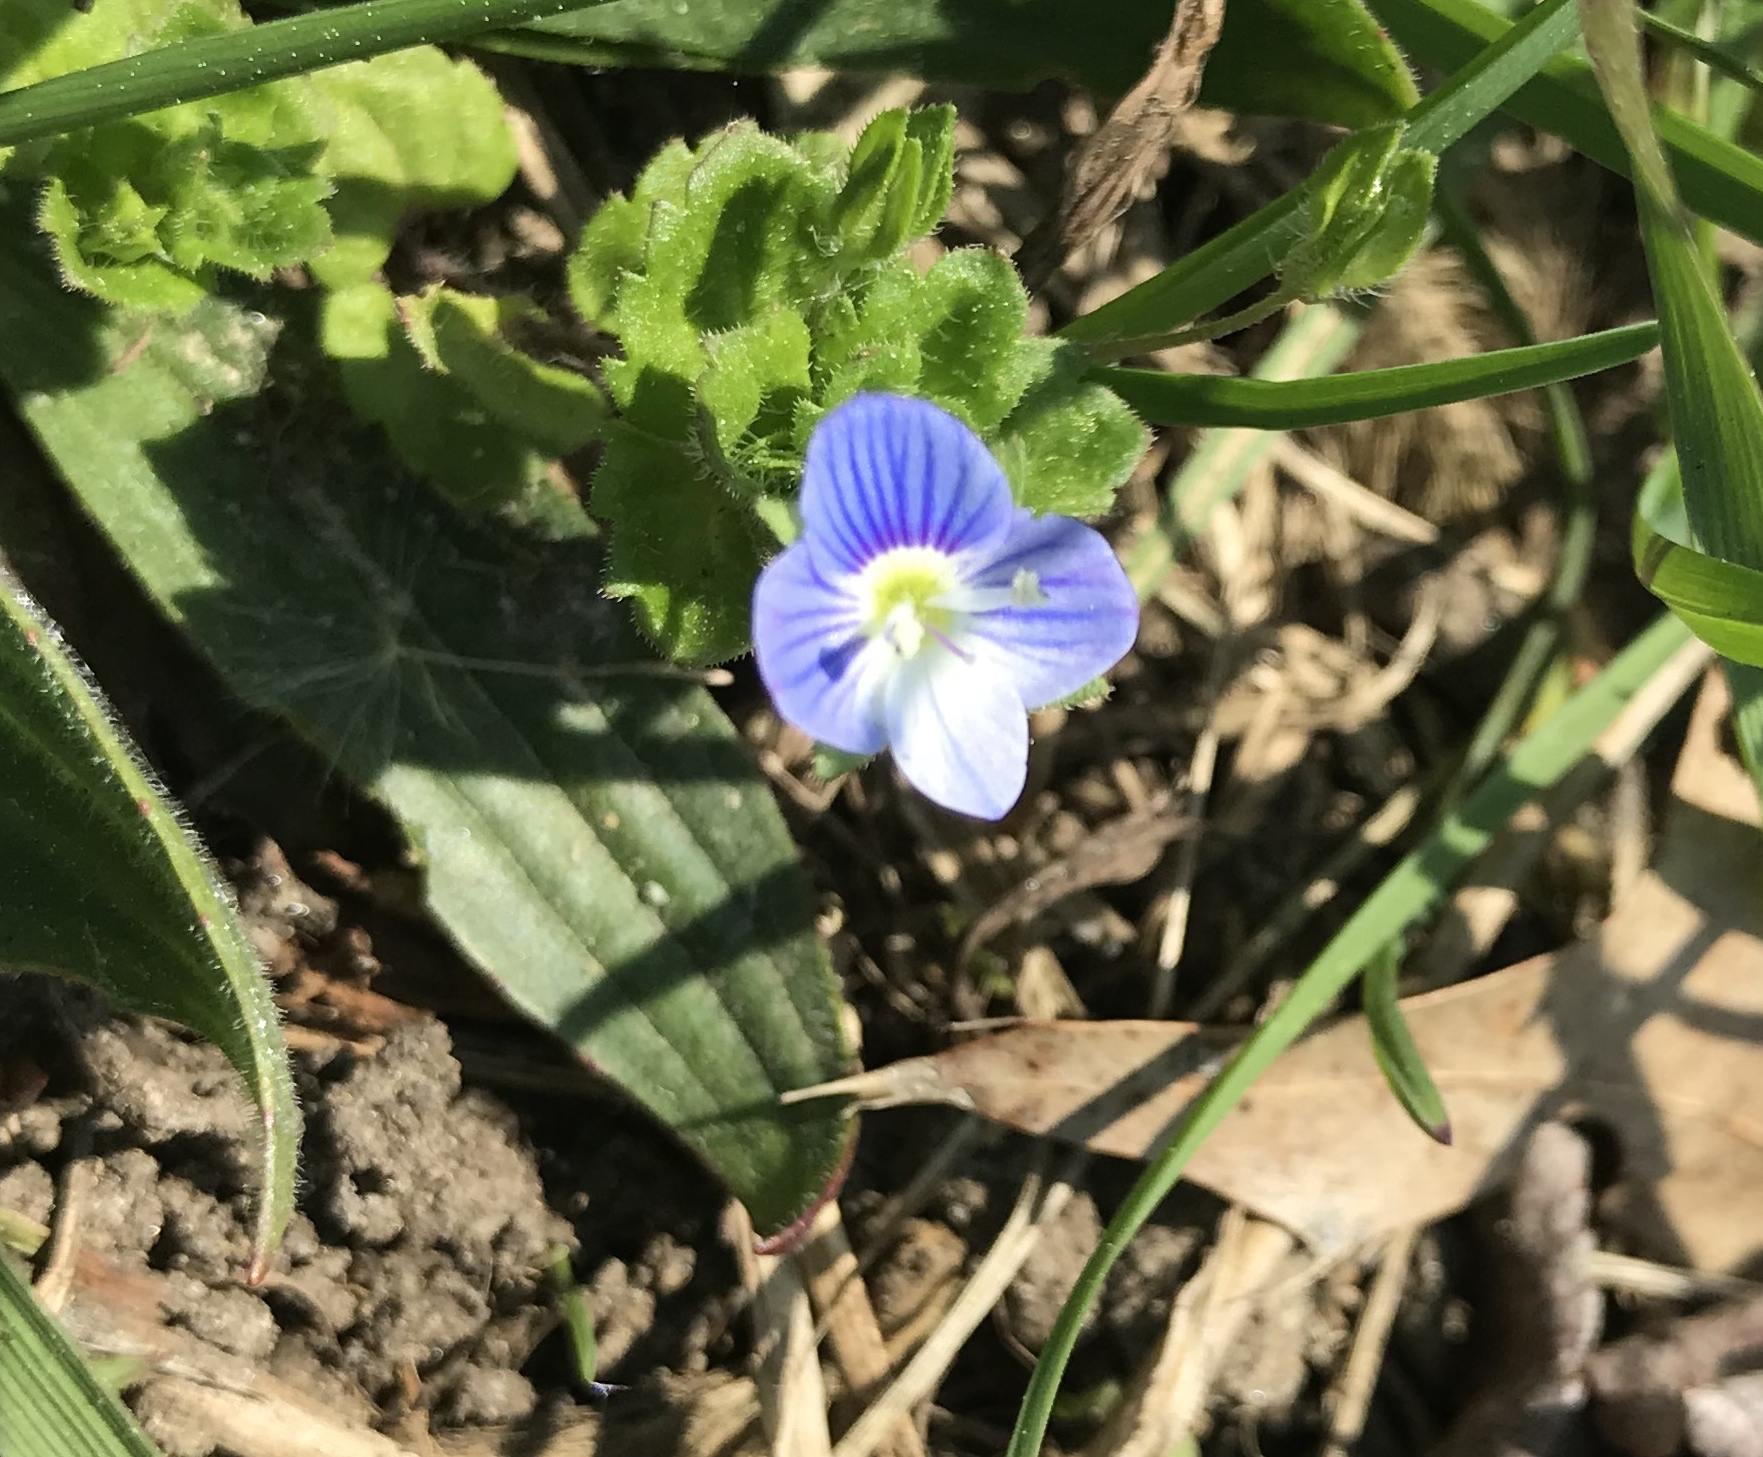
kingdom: Plantae
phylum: Tracheophyta
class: Magnoliopsida
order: Lamiales
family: Plantaginaceae
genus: Veronica
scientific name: Veronica persica
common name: Common field-speedwell
